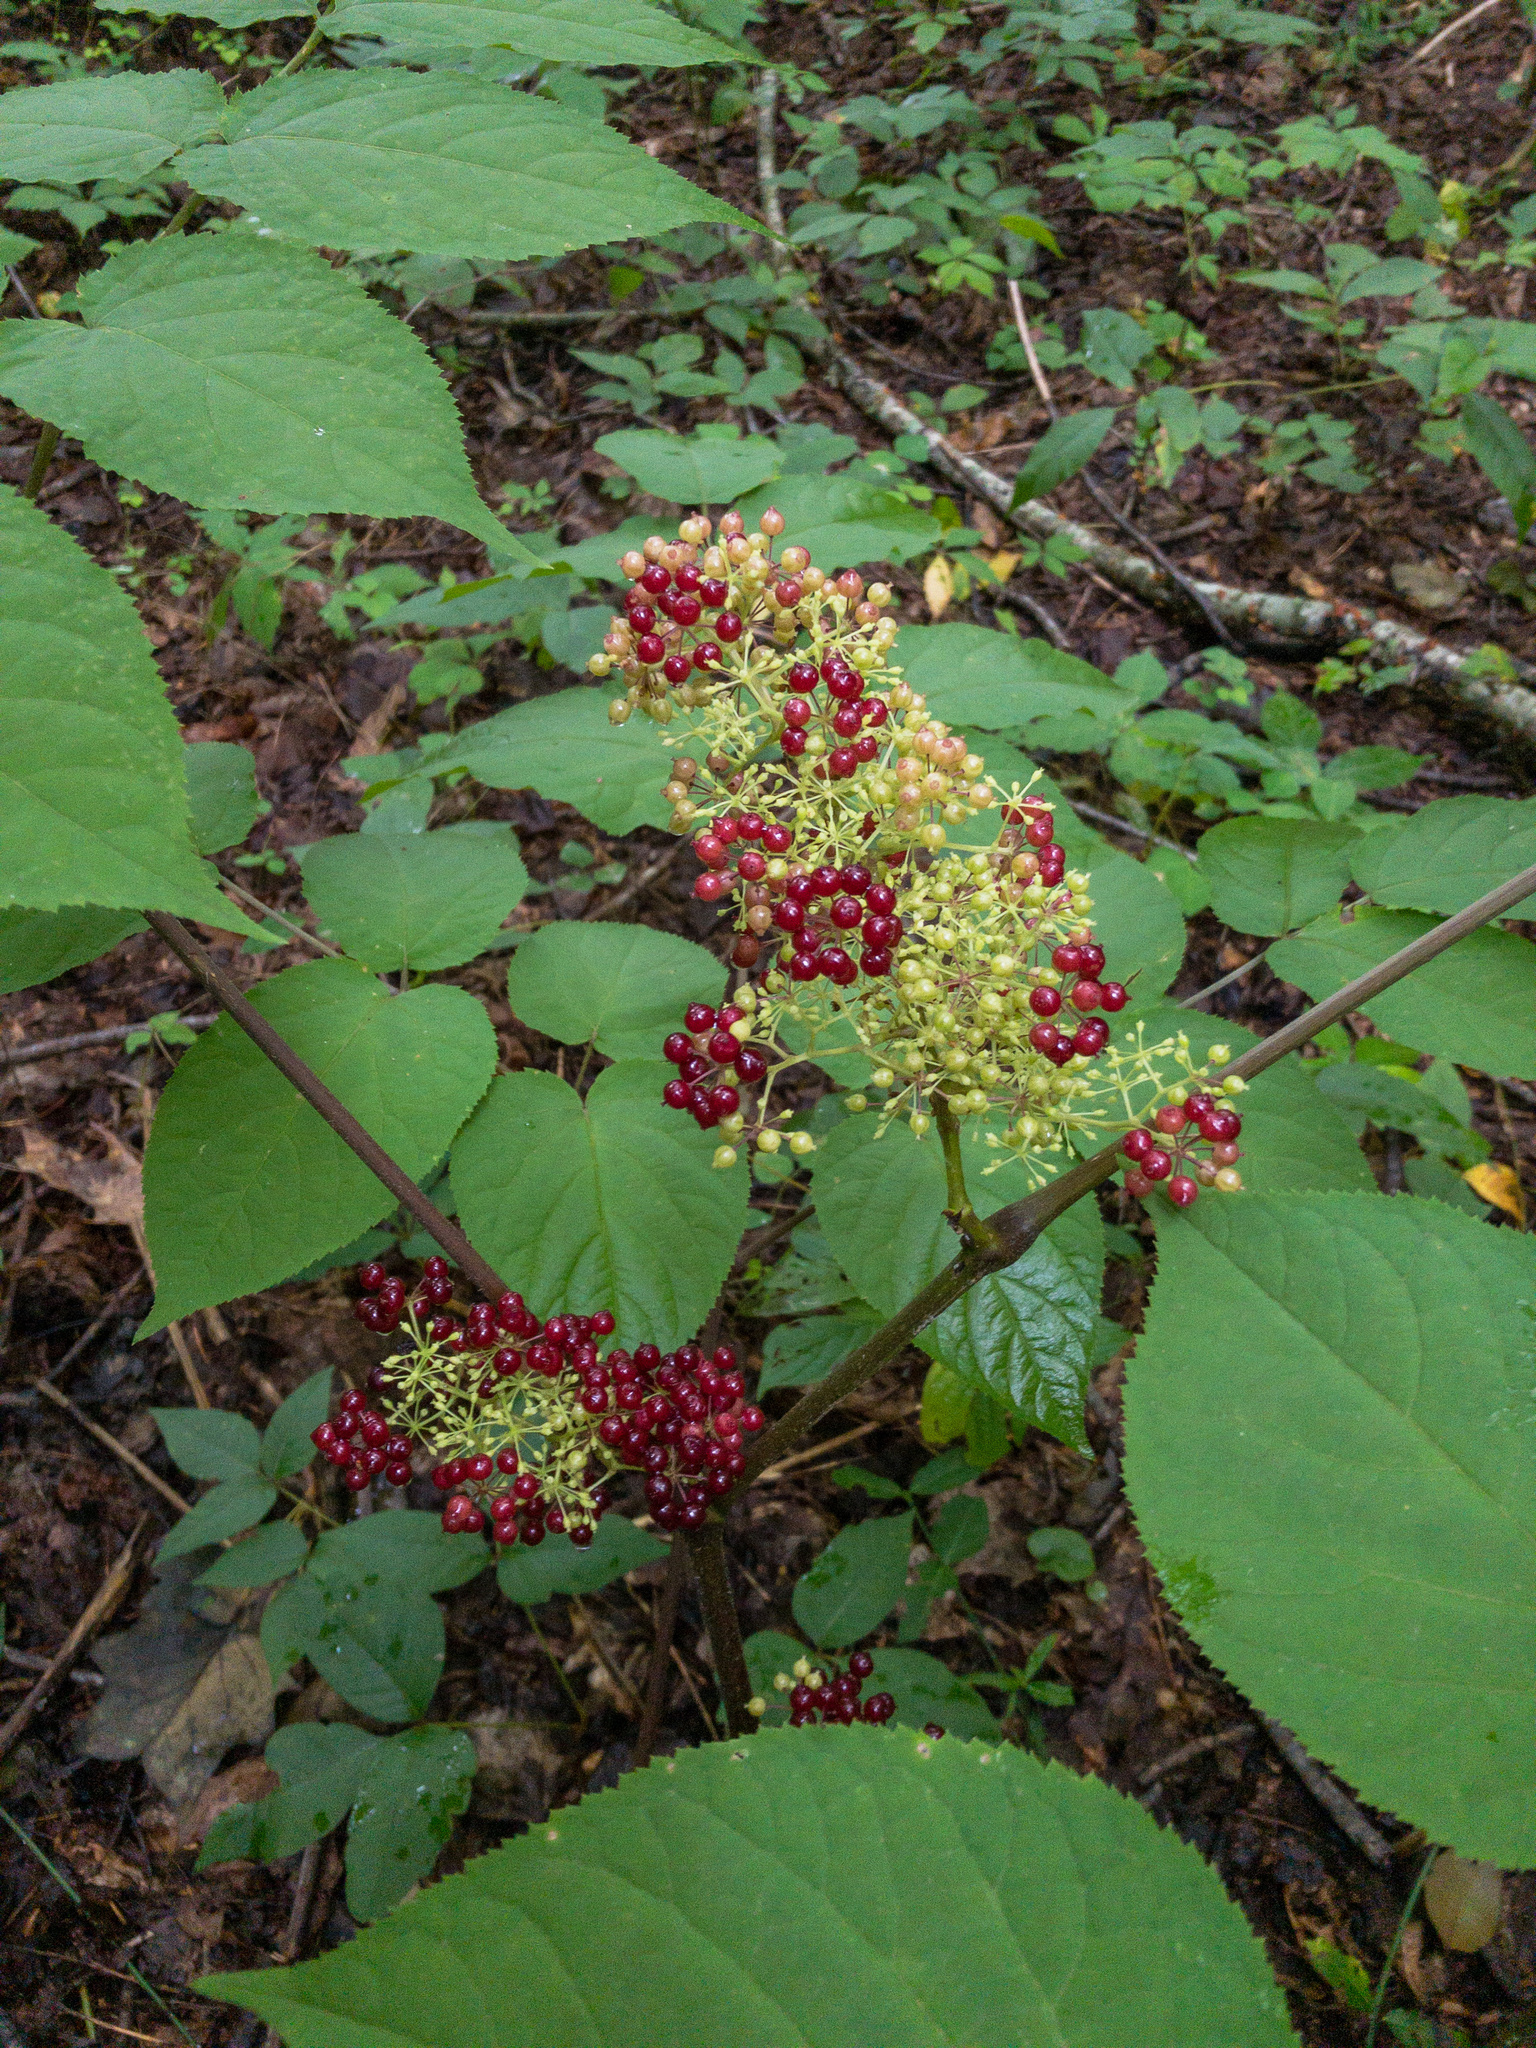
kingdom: Plantae
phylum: Tracheophyta
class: Magnoliopsida
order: Apiales
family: Araliaceae
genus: Aralia
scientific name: Aralia racemosa
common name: American-spikenard
